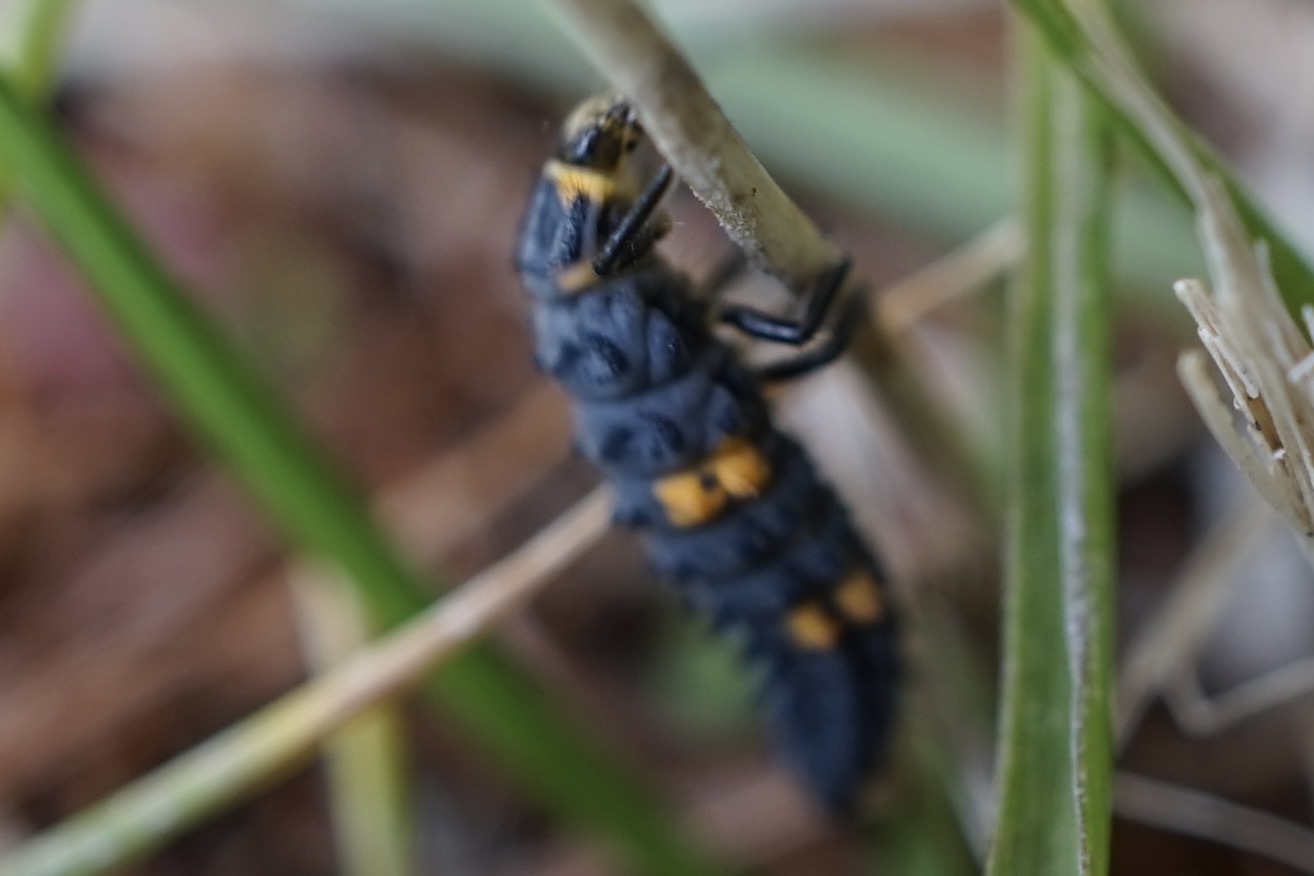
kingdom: Animalia
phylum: Arthropoda
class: Insecta
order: Coleoptera
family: Coccinellidae
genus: Coccinella
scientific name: Coccinella septempunctata
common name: Sevenspotted lady beetle
